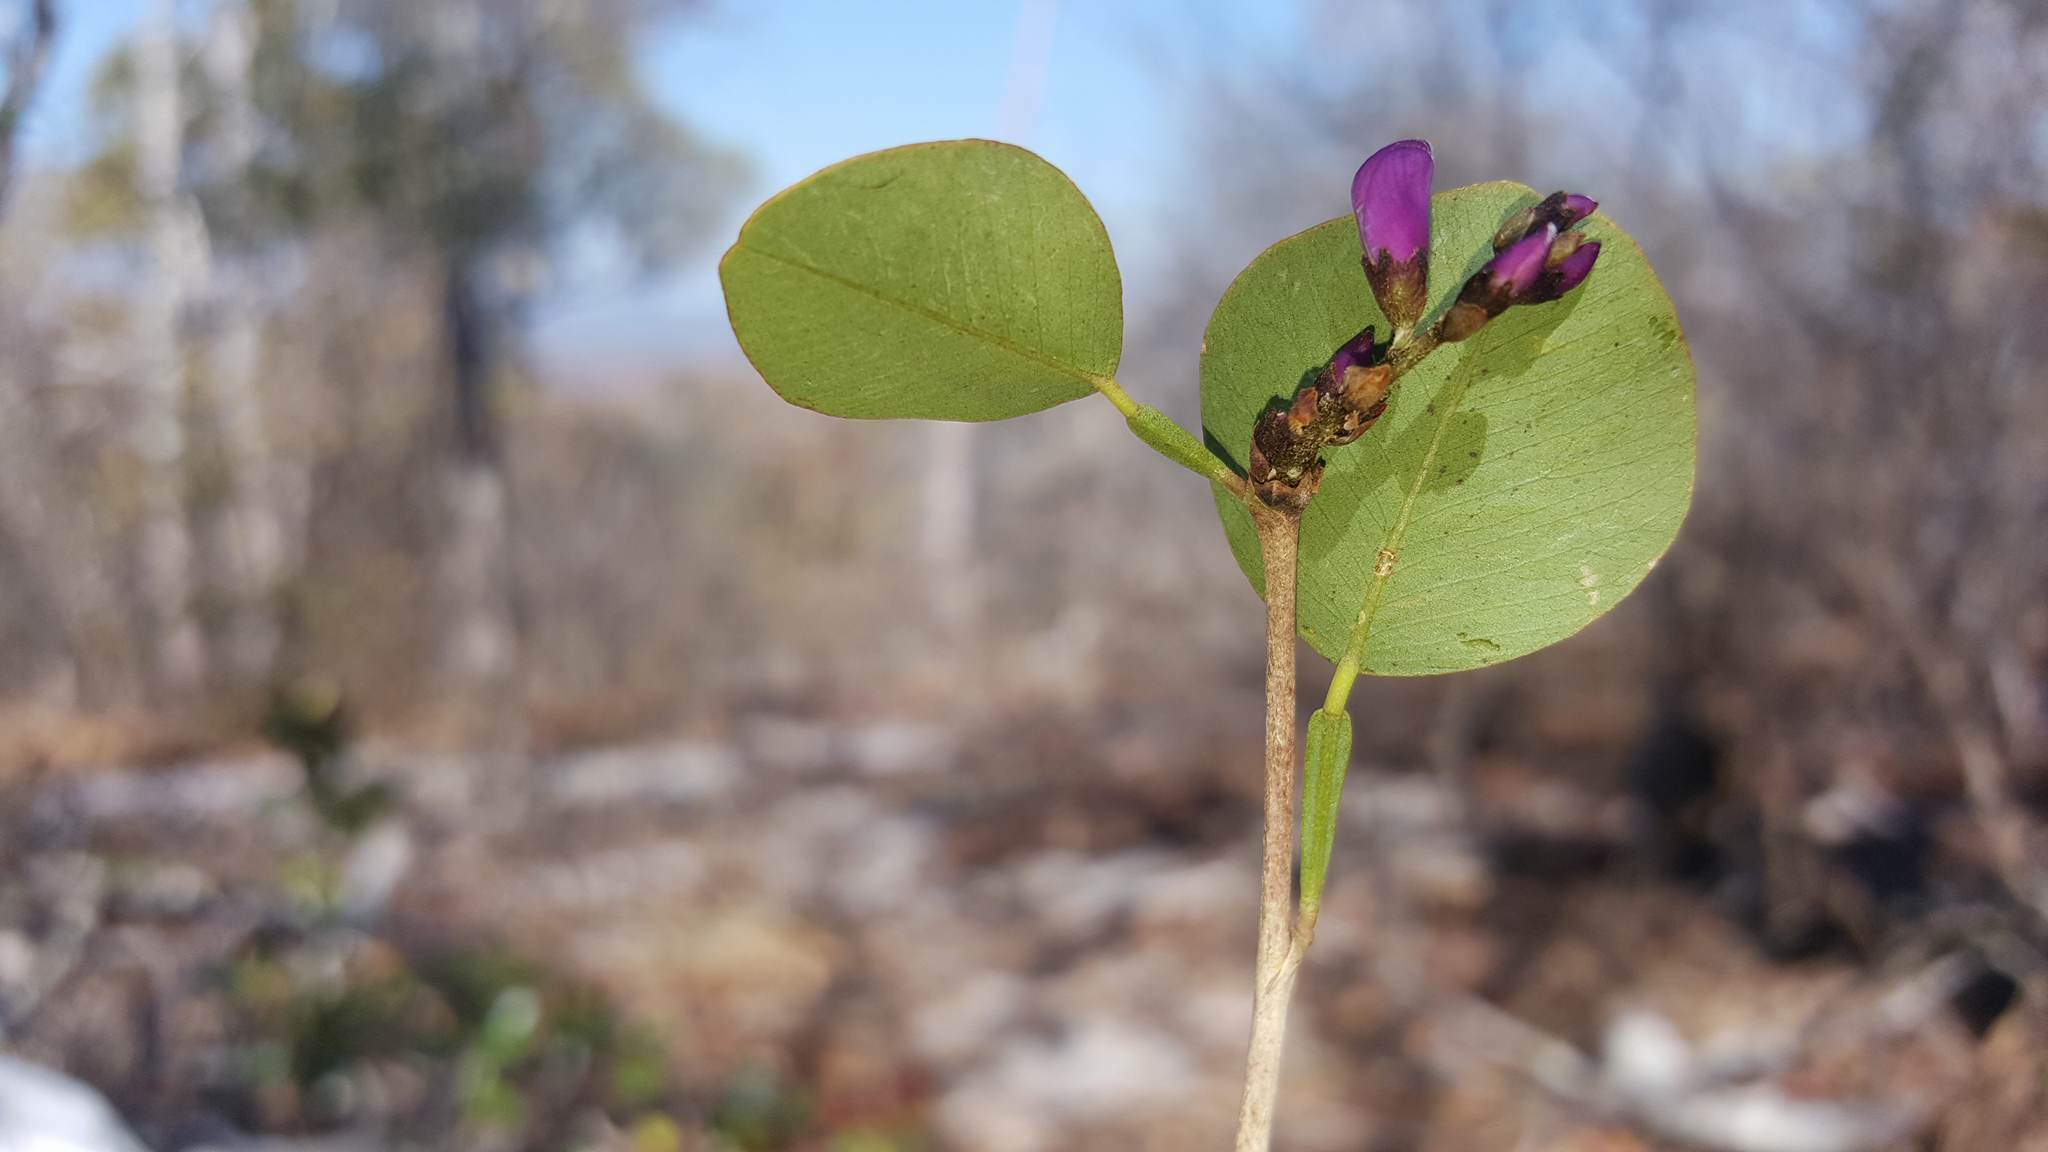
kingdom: Plantae
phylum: Tracheophyta
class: Magnoliopsida
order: Fabales
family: Fabaceae
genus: Indigofera
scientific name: Indigofera dionaeifolia
